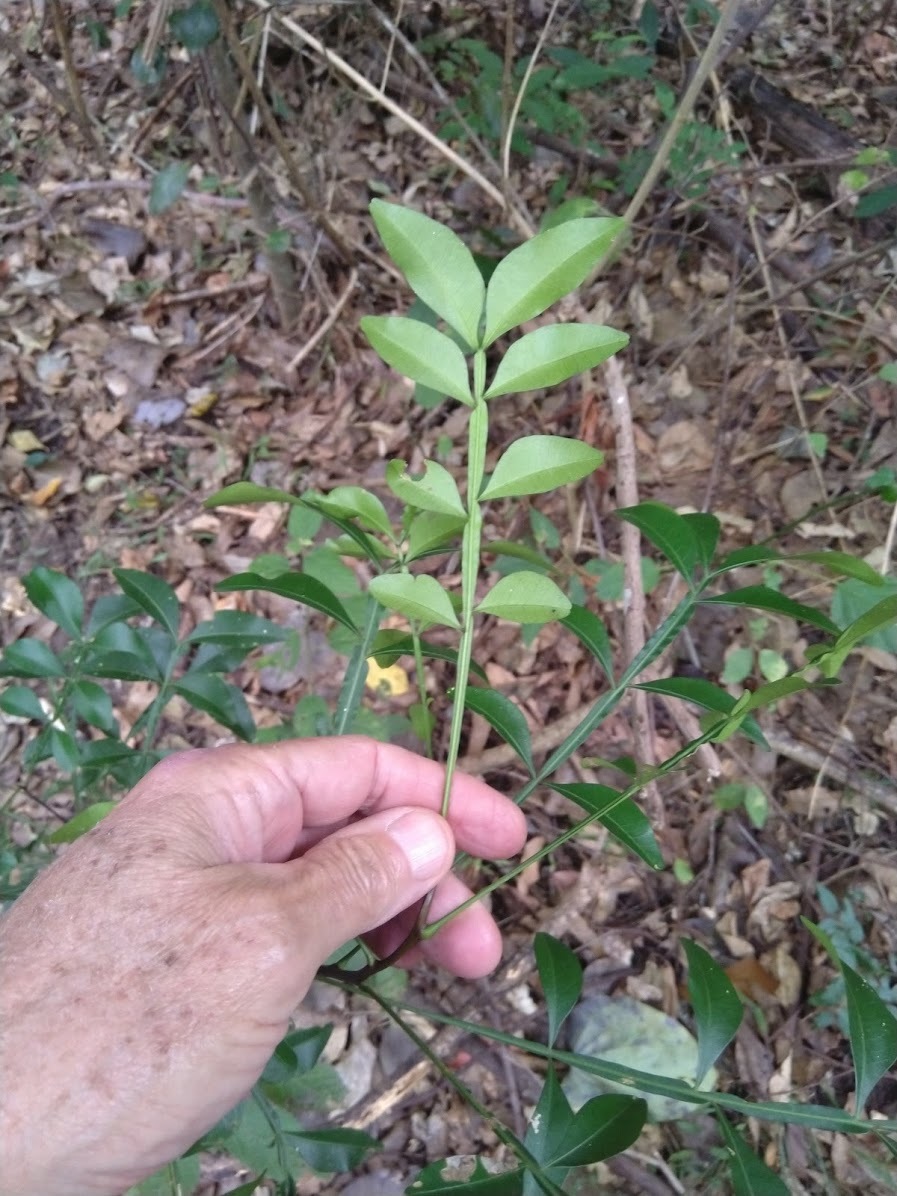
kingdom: Plantae
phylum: Tracheophyta
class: Magnoliopsida
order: Sapindales
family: Meliaceae
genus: Owenia
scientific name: Owenia venosa
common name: Crow's-apple
